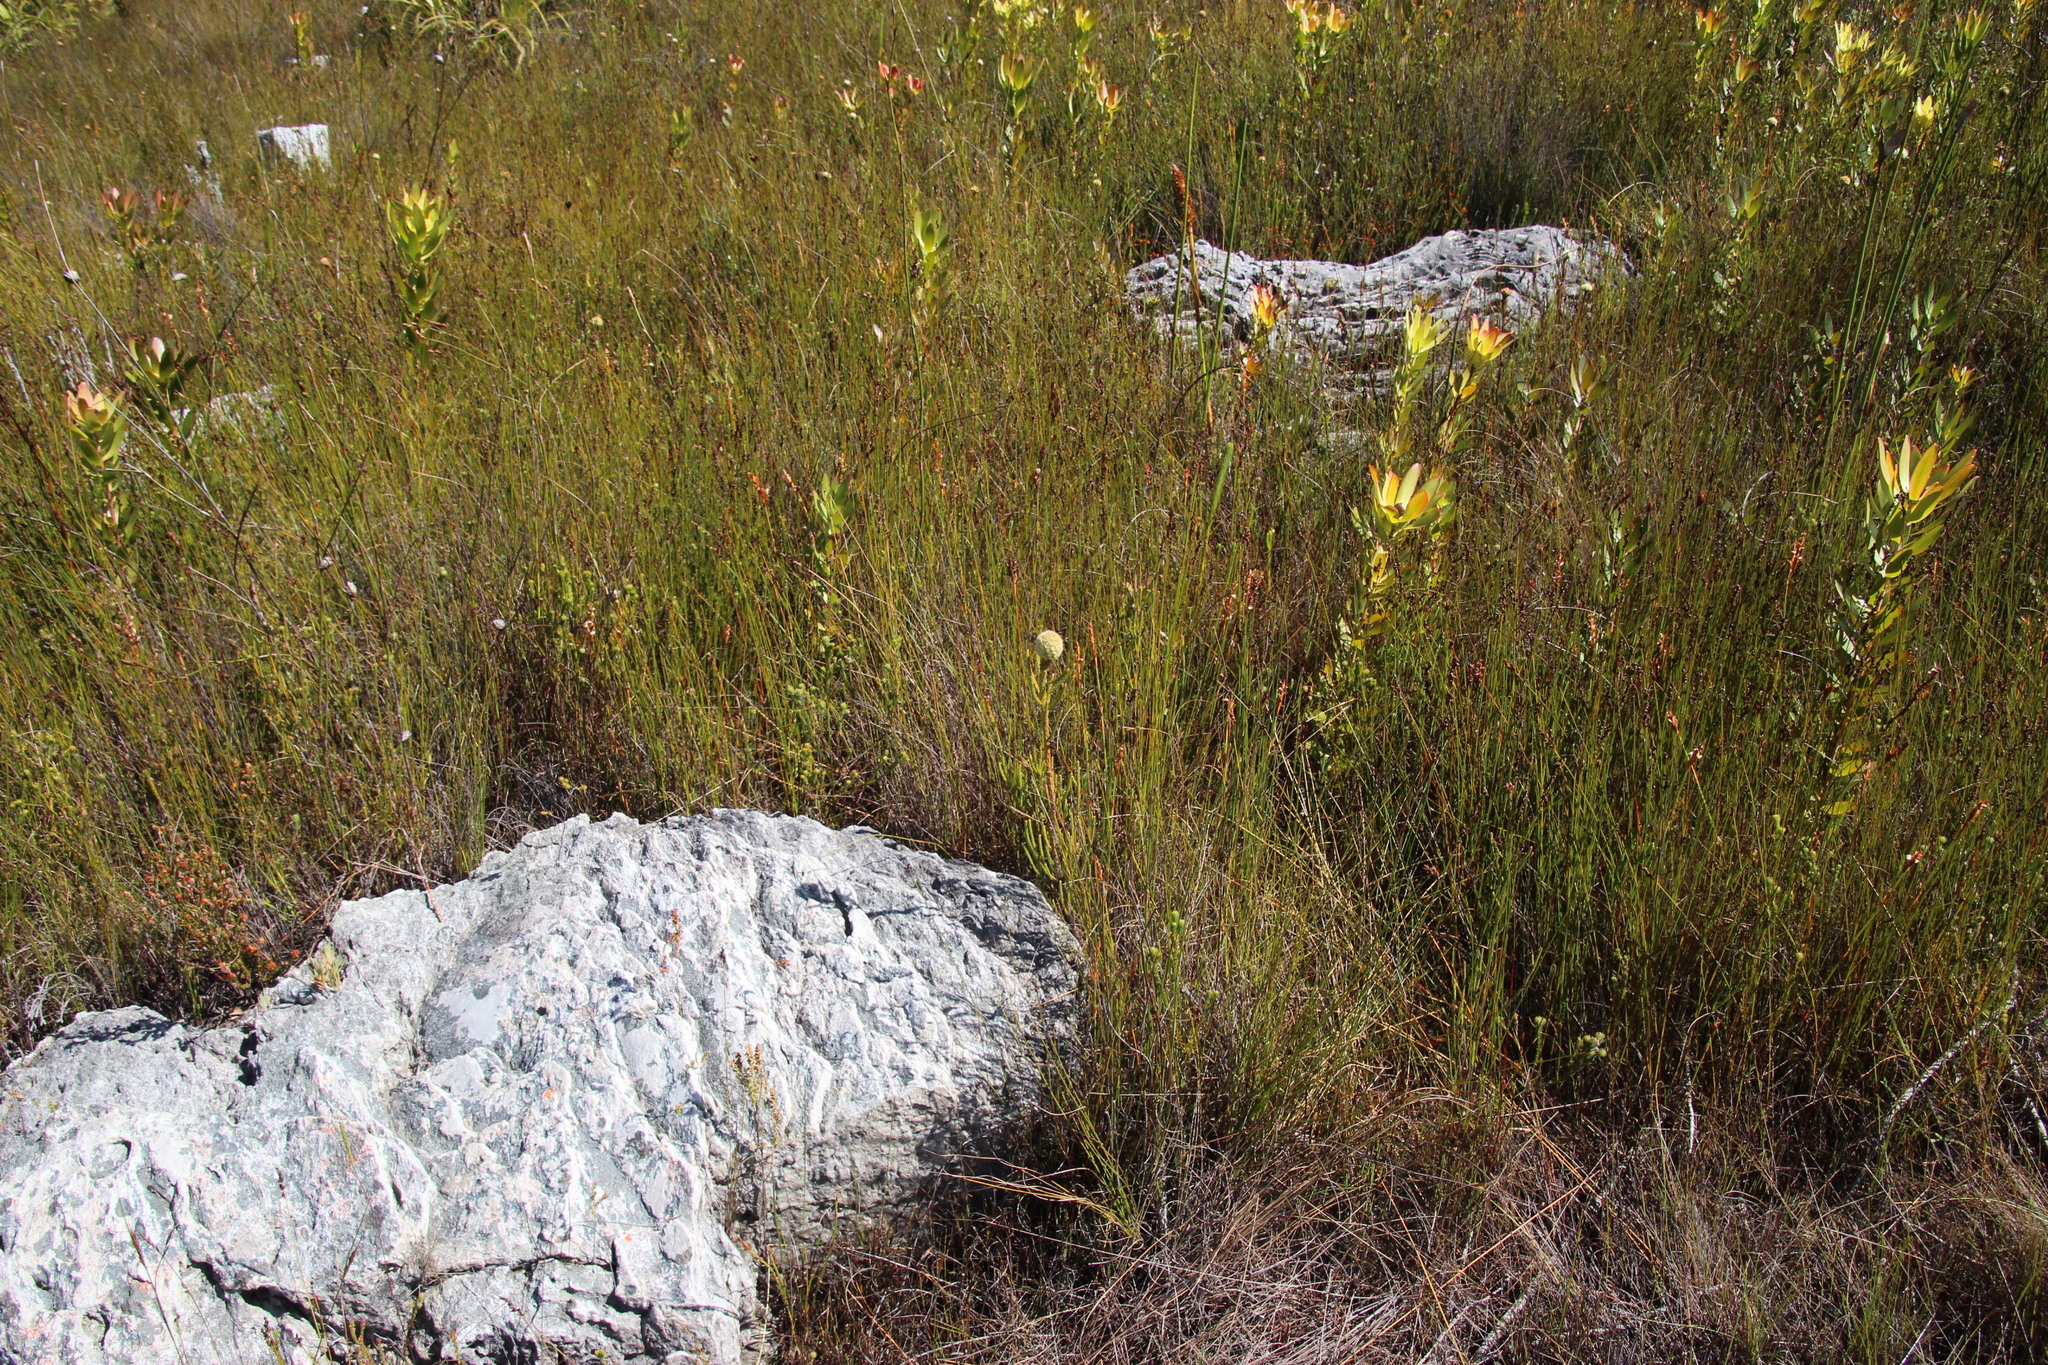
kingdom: Plantae
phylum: Tracheophyta
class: Magnoliopsida
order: Bruniales
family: Bruniaceae
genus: Brunia
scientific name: Brunia fragarioides
